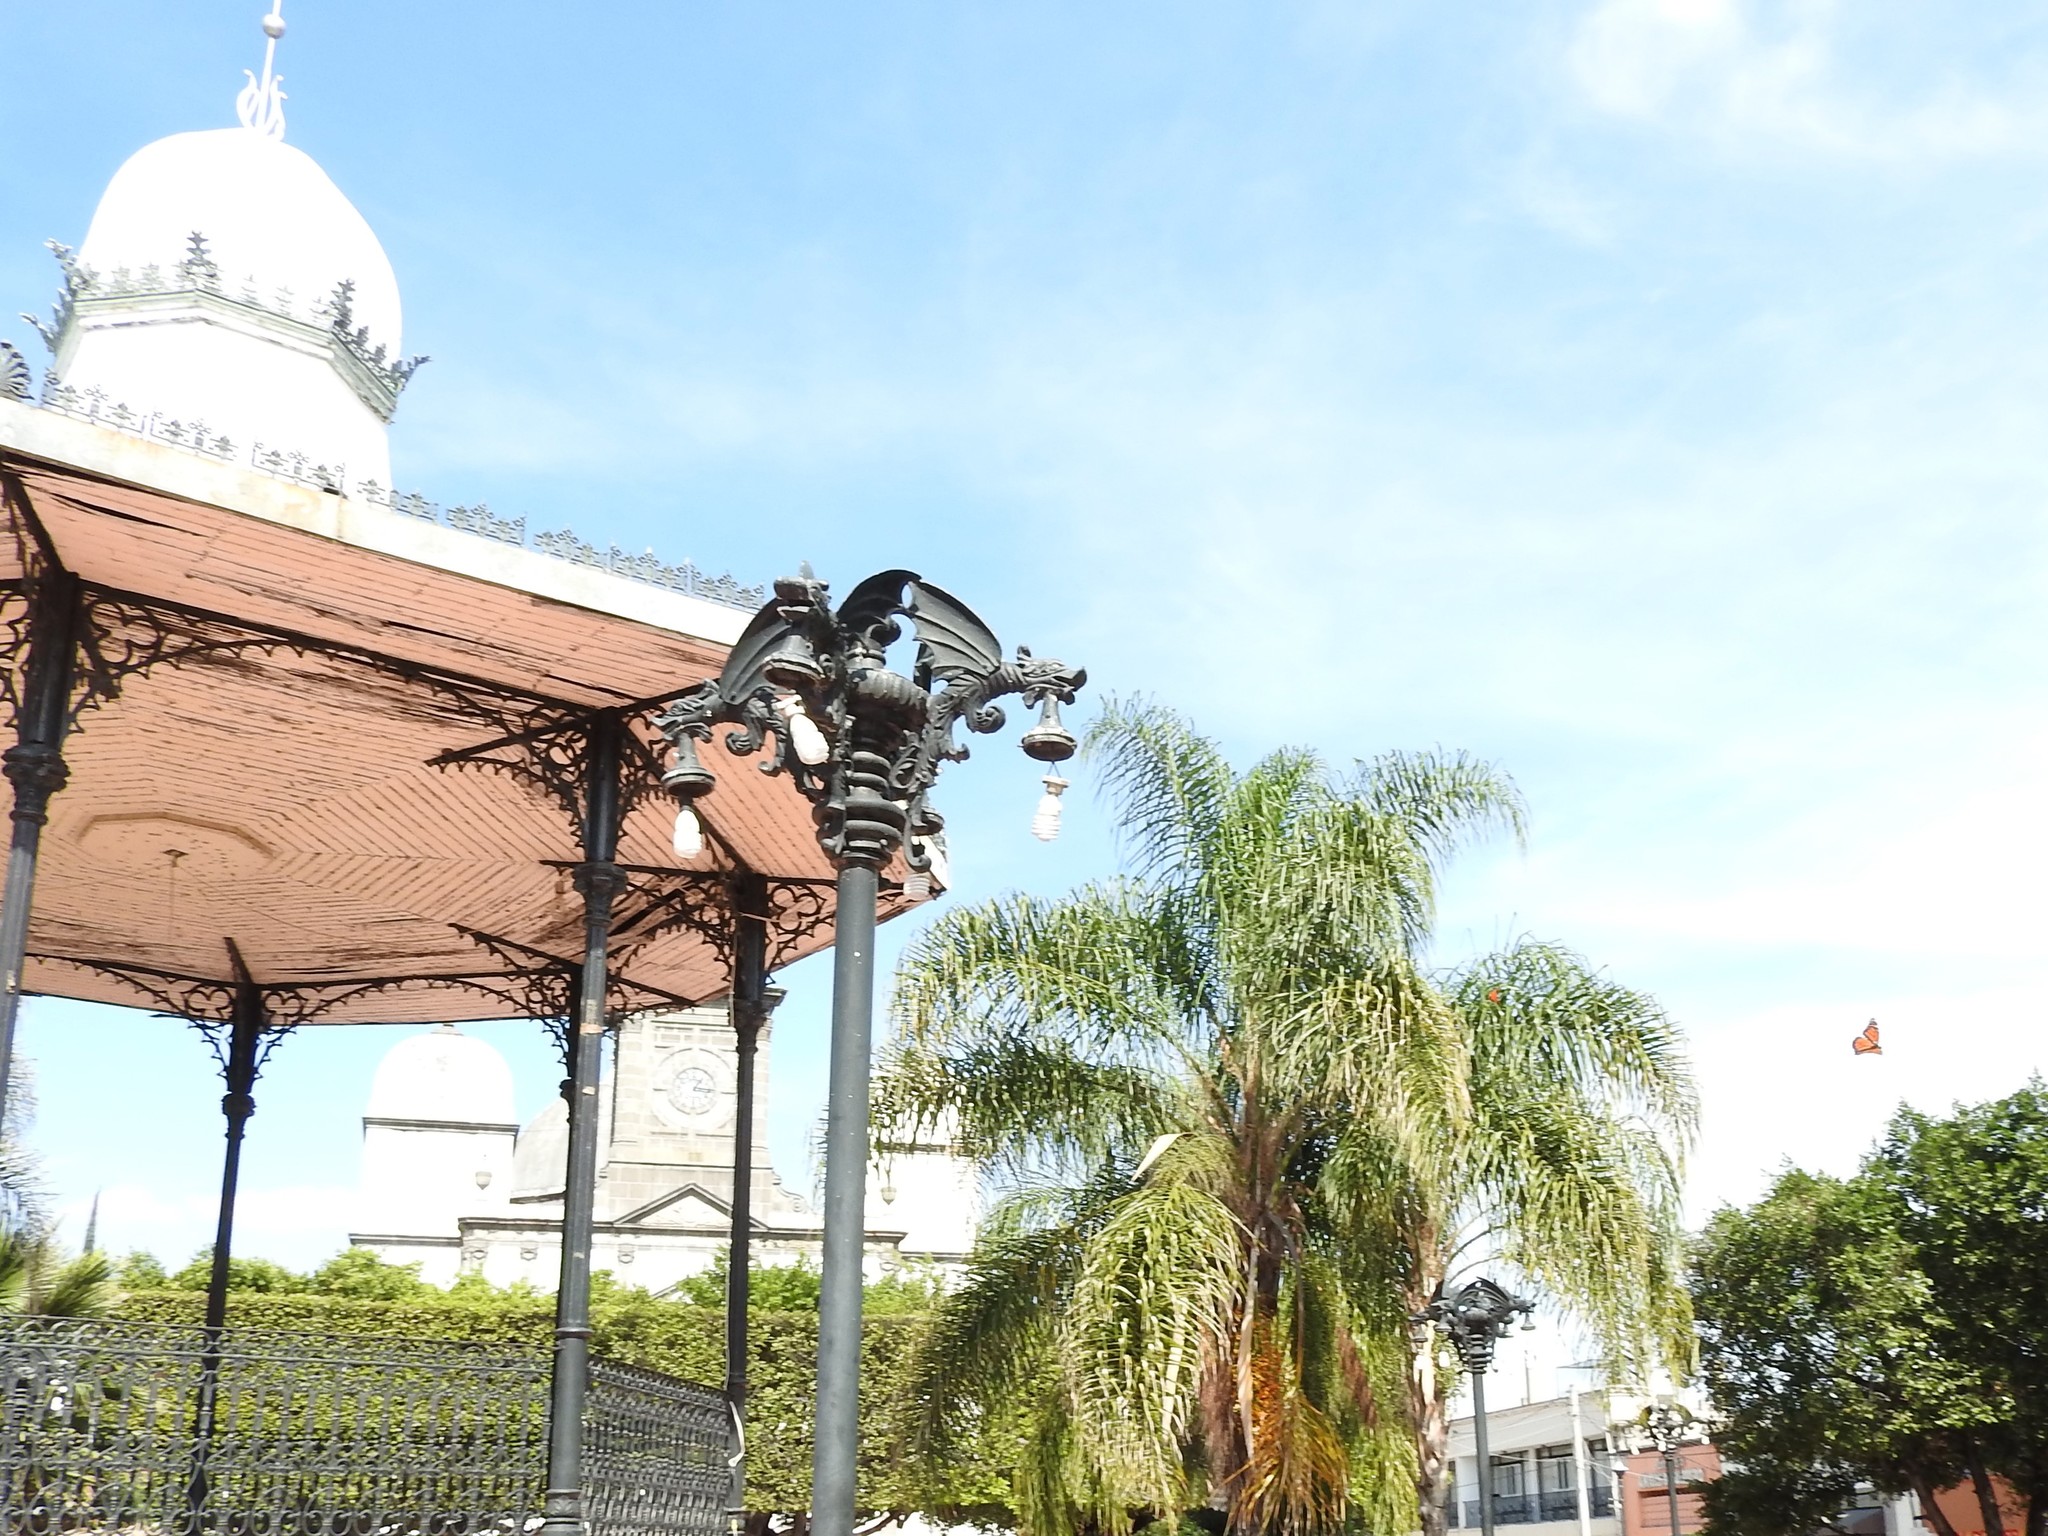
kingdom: Animalia
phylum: Arthropoda
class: Insecta
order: Lepidoptera
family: Nymphalidae
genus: Danaus
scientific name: Danaus plexippus
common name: Monarch
